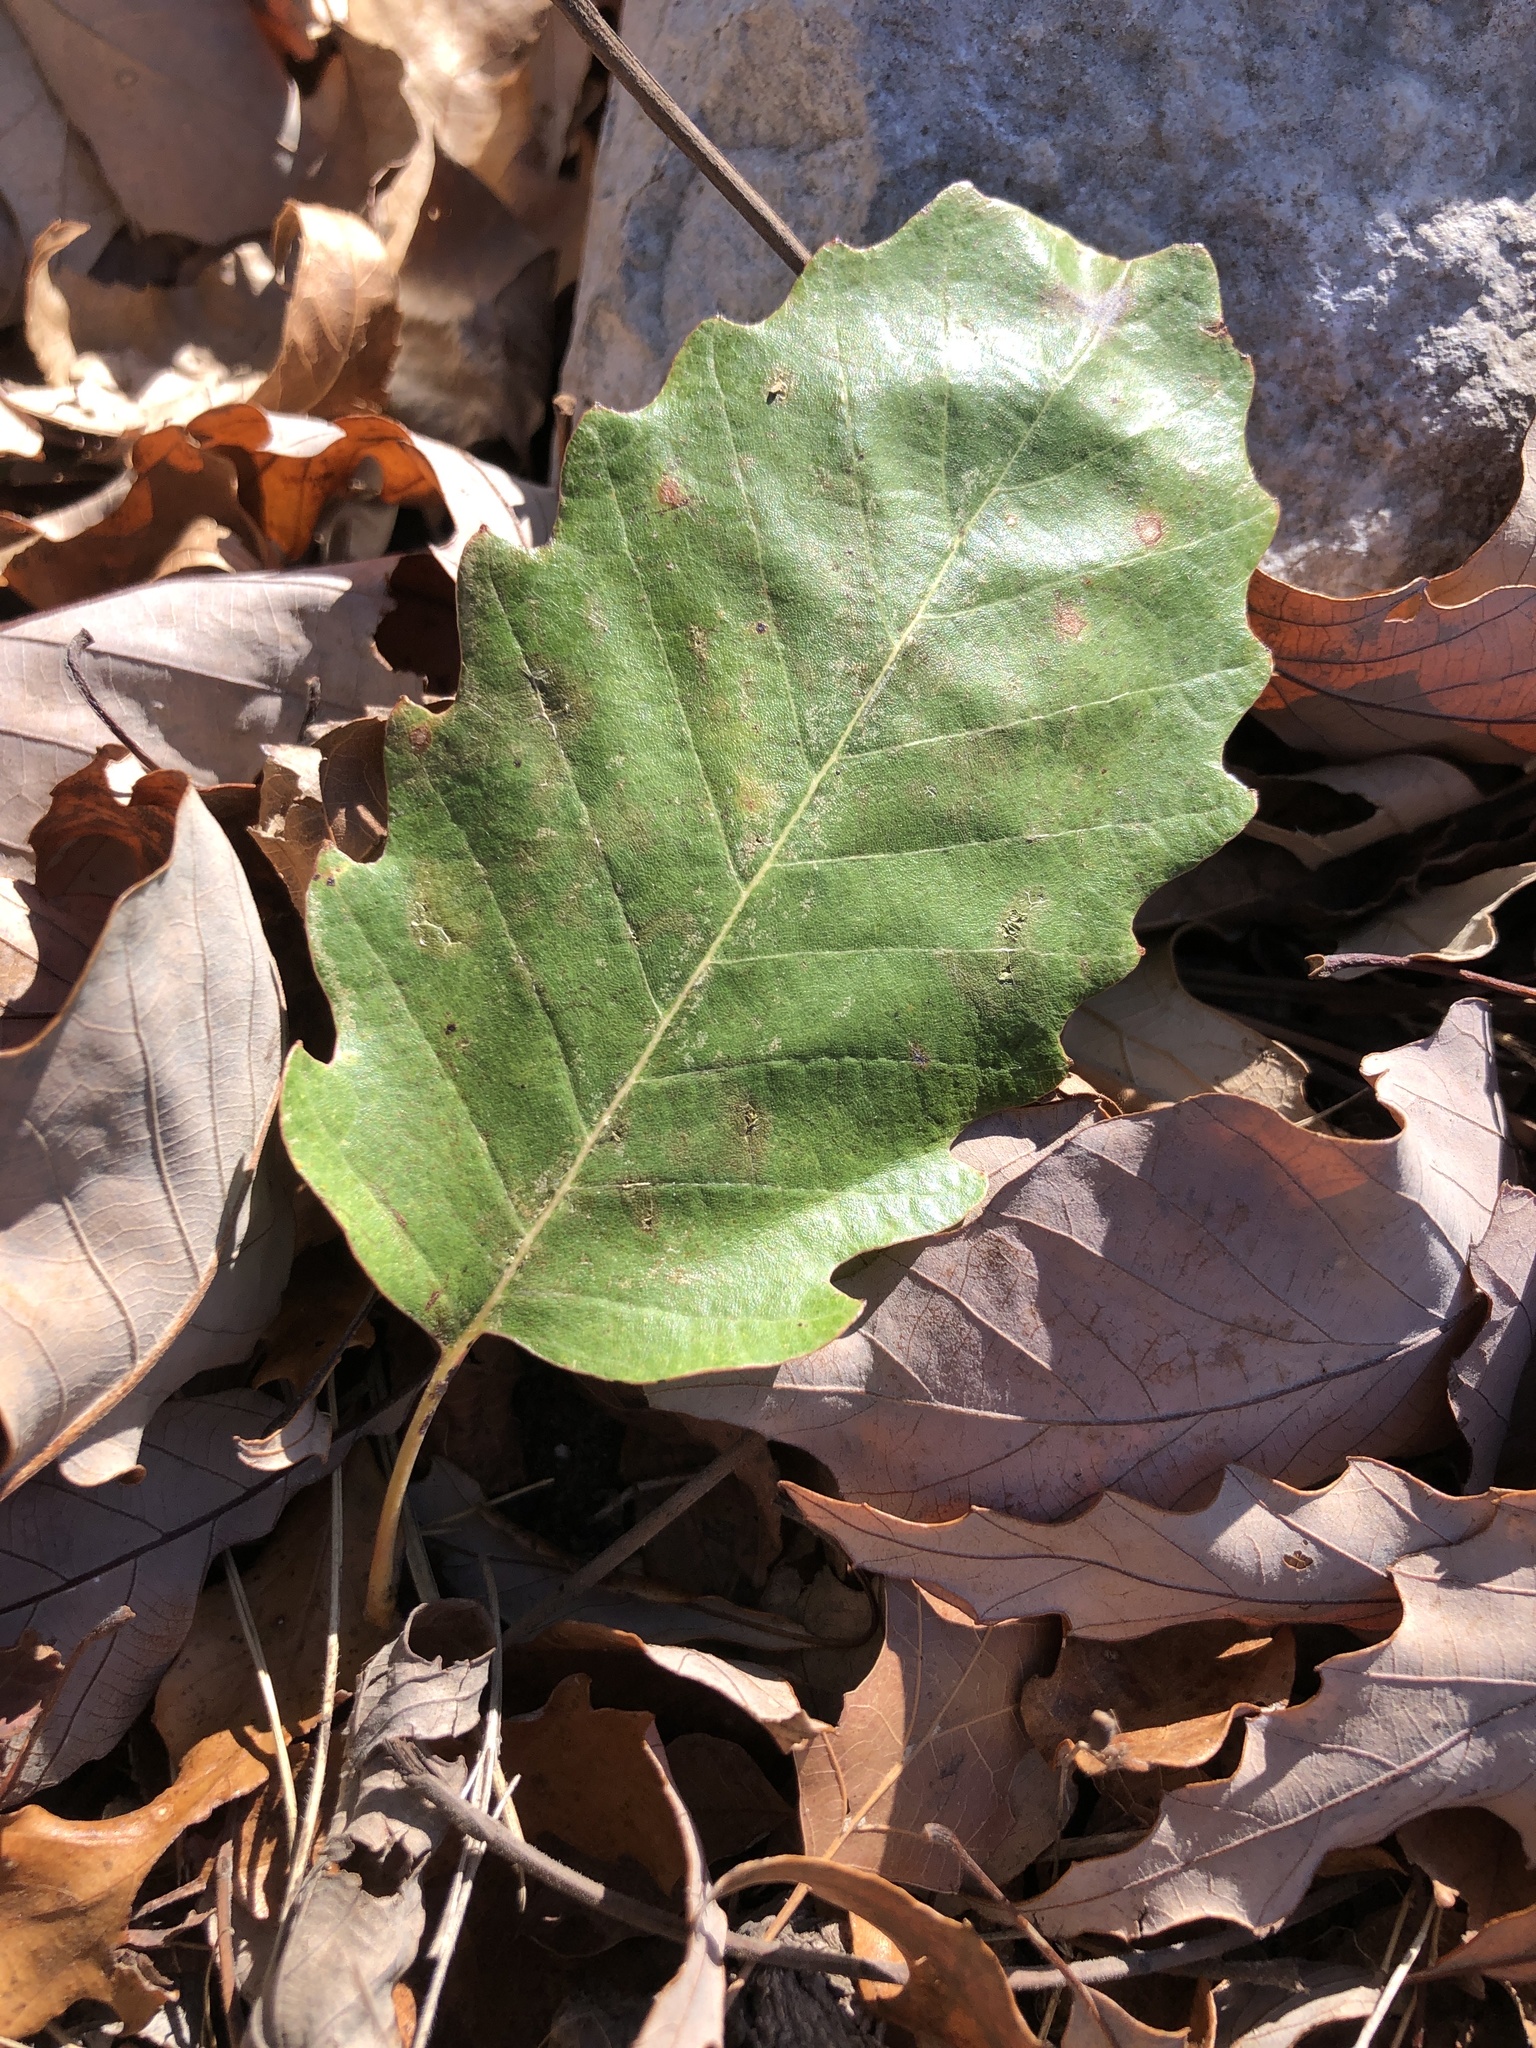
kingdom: Plantae
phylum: Tracheophyta
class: Magnoliopsida
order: Fagales
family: Fagaceae
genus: Quercus
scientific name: Quercus muehlenbergii
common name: Chinkapin oak
